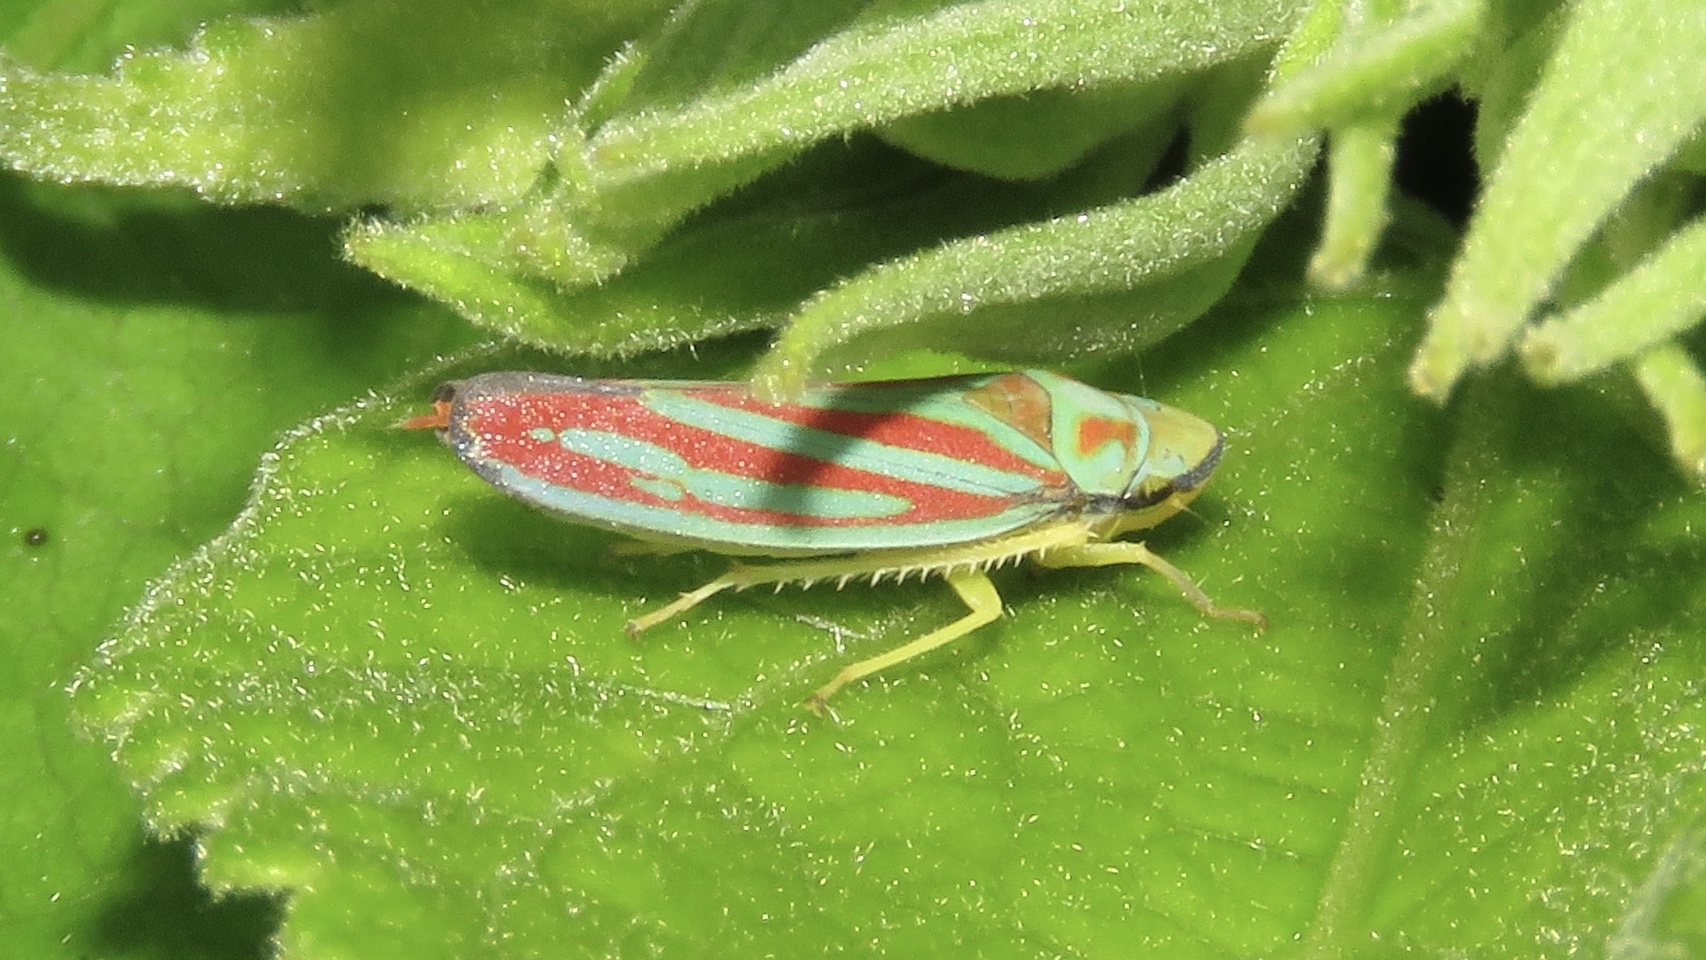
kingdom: Animalia
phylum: Arthropoda
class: Insecta
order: Hemiptera
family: Cicadellidae
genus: Graphocephala
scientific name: Graphocephala coccinea
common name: Candy-striped leafhopper
